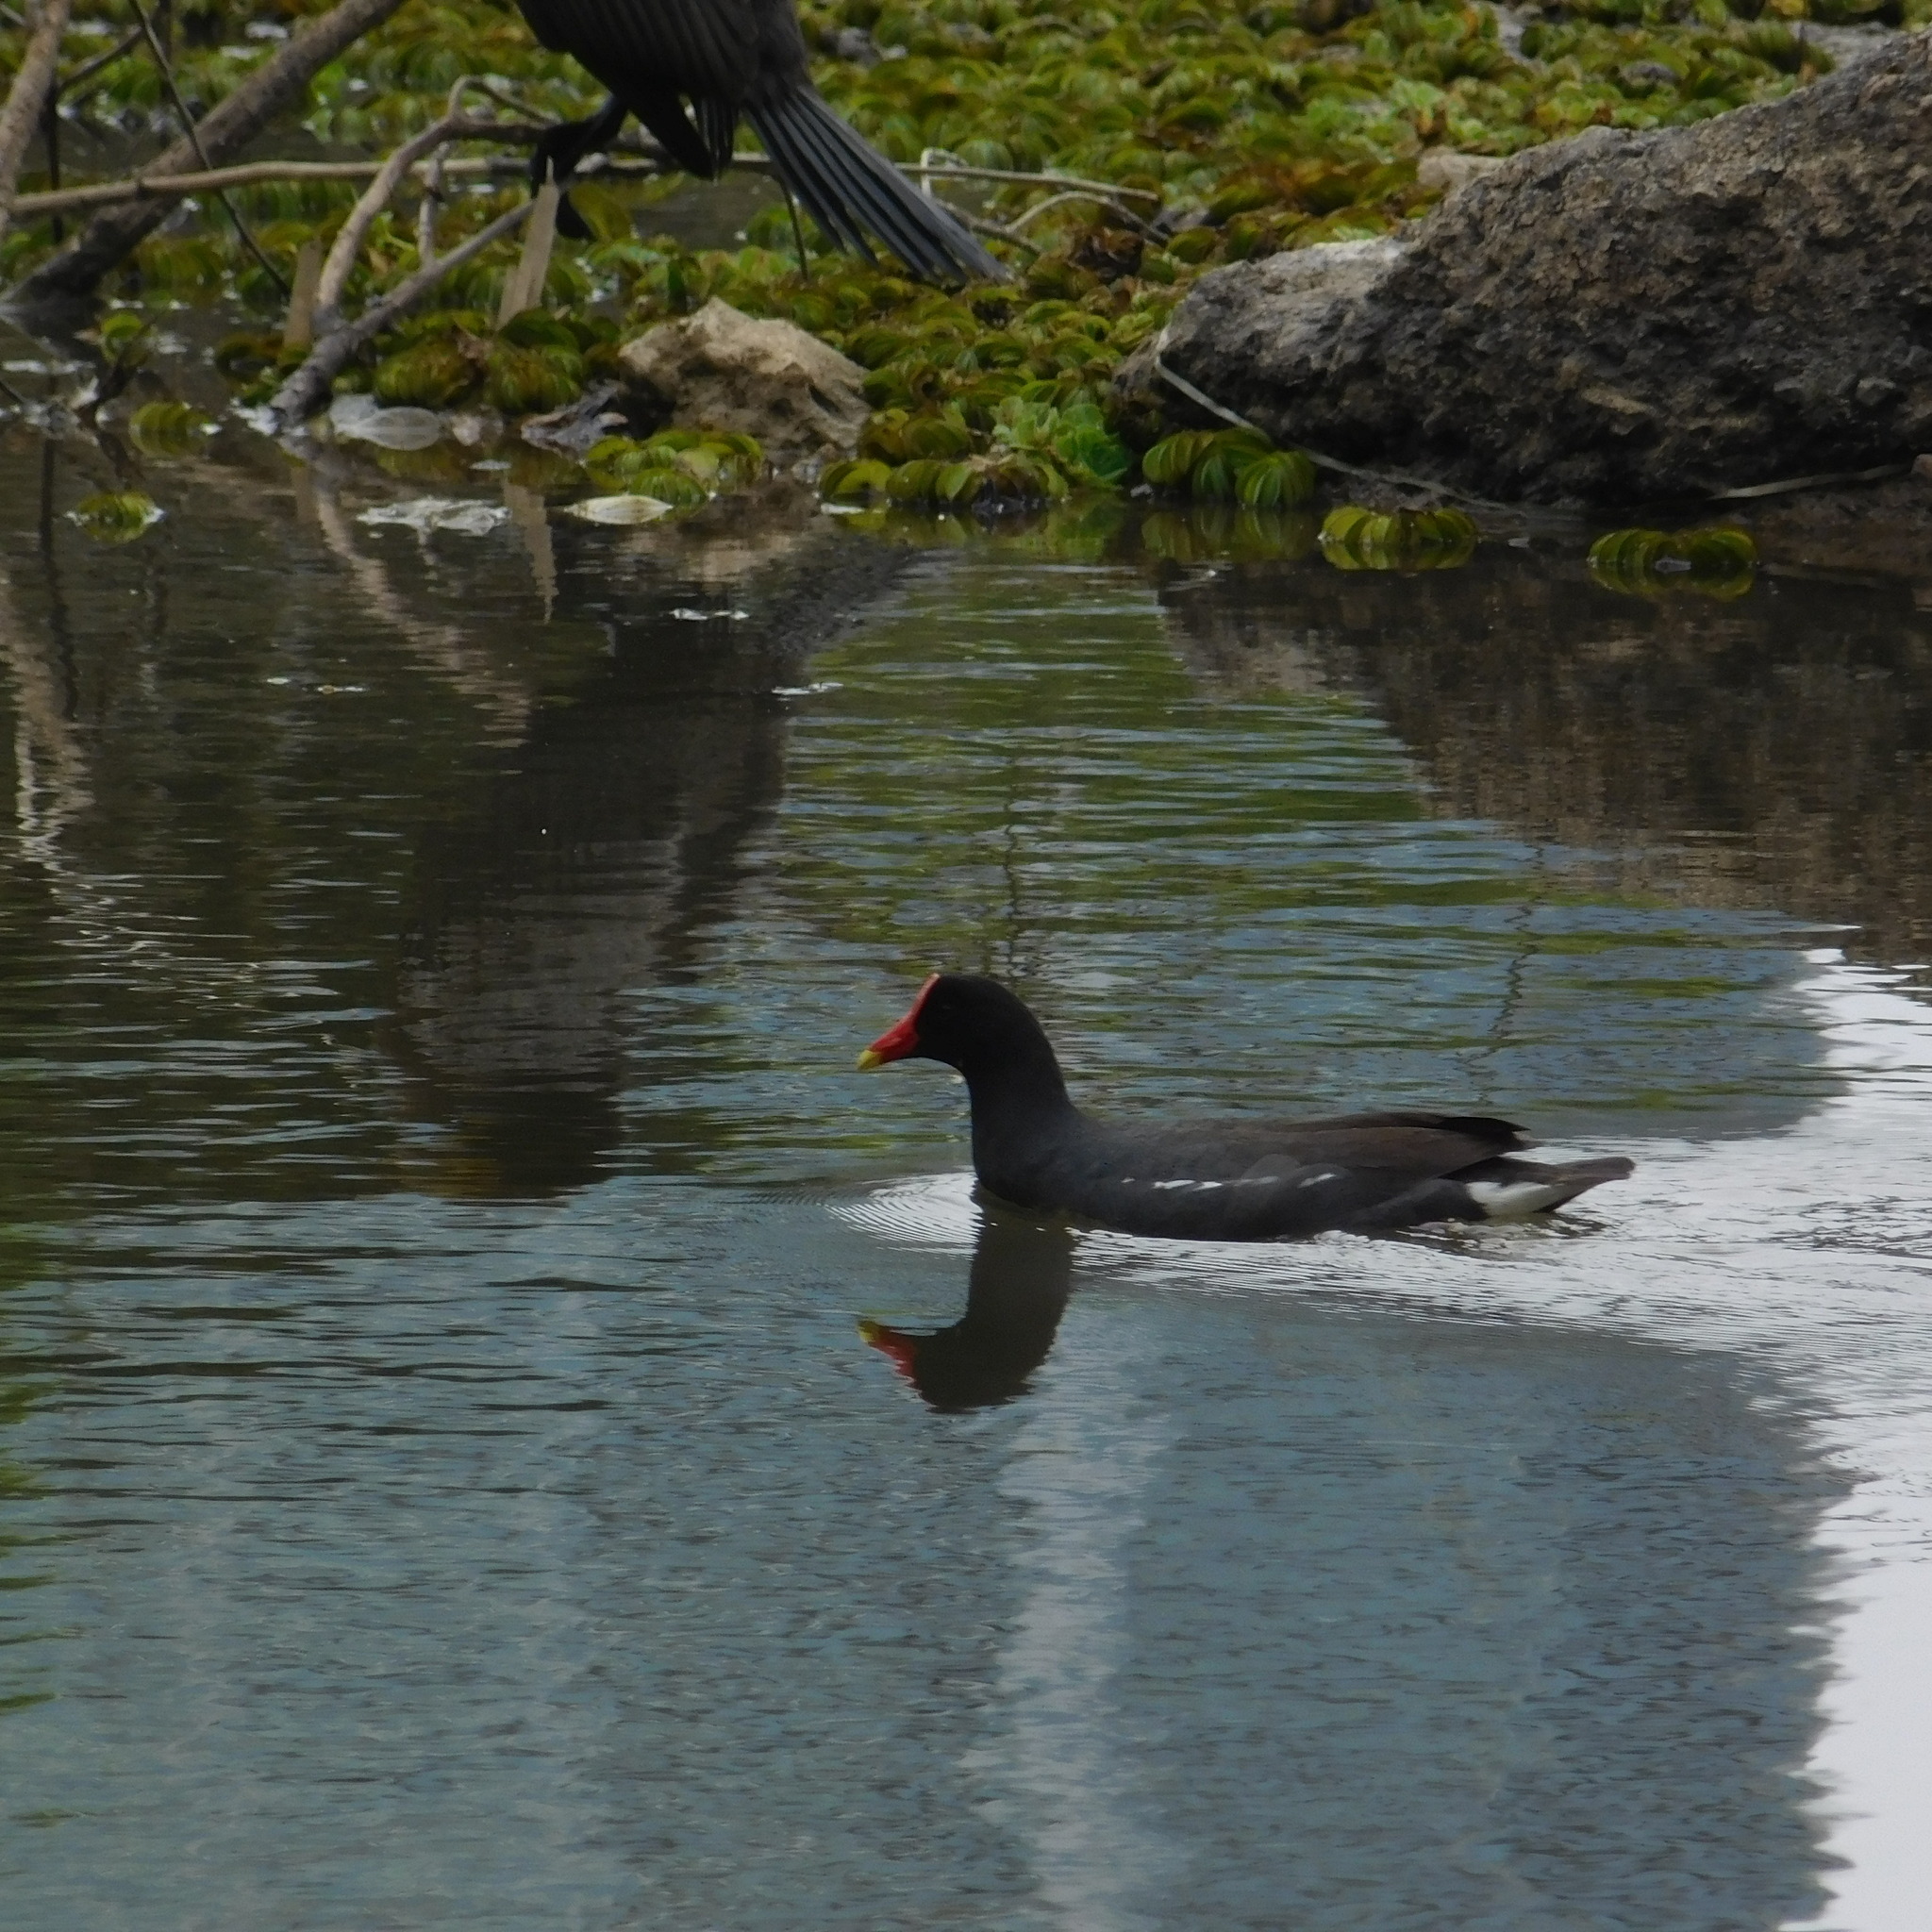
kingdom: Animalia
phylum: Chordata
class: Aves
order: Gruiformes
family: Rallidae
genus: Gallinula
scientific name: Gallinula chloropus
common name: Common moorhen
